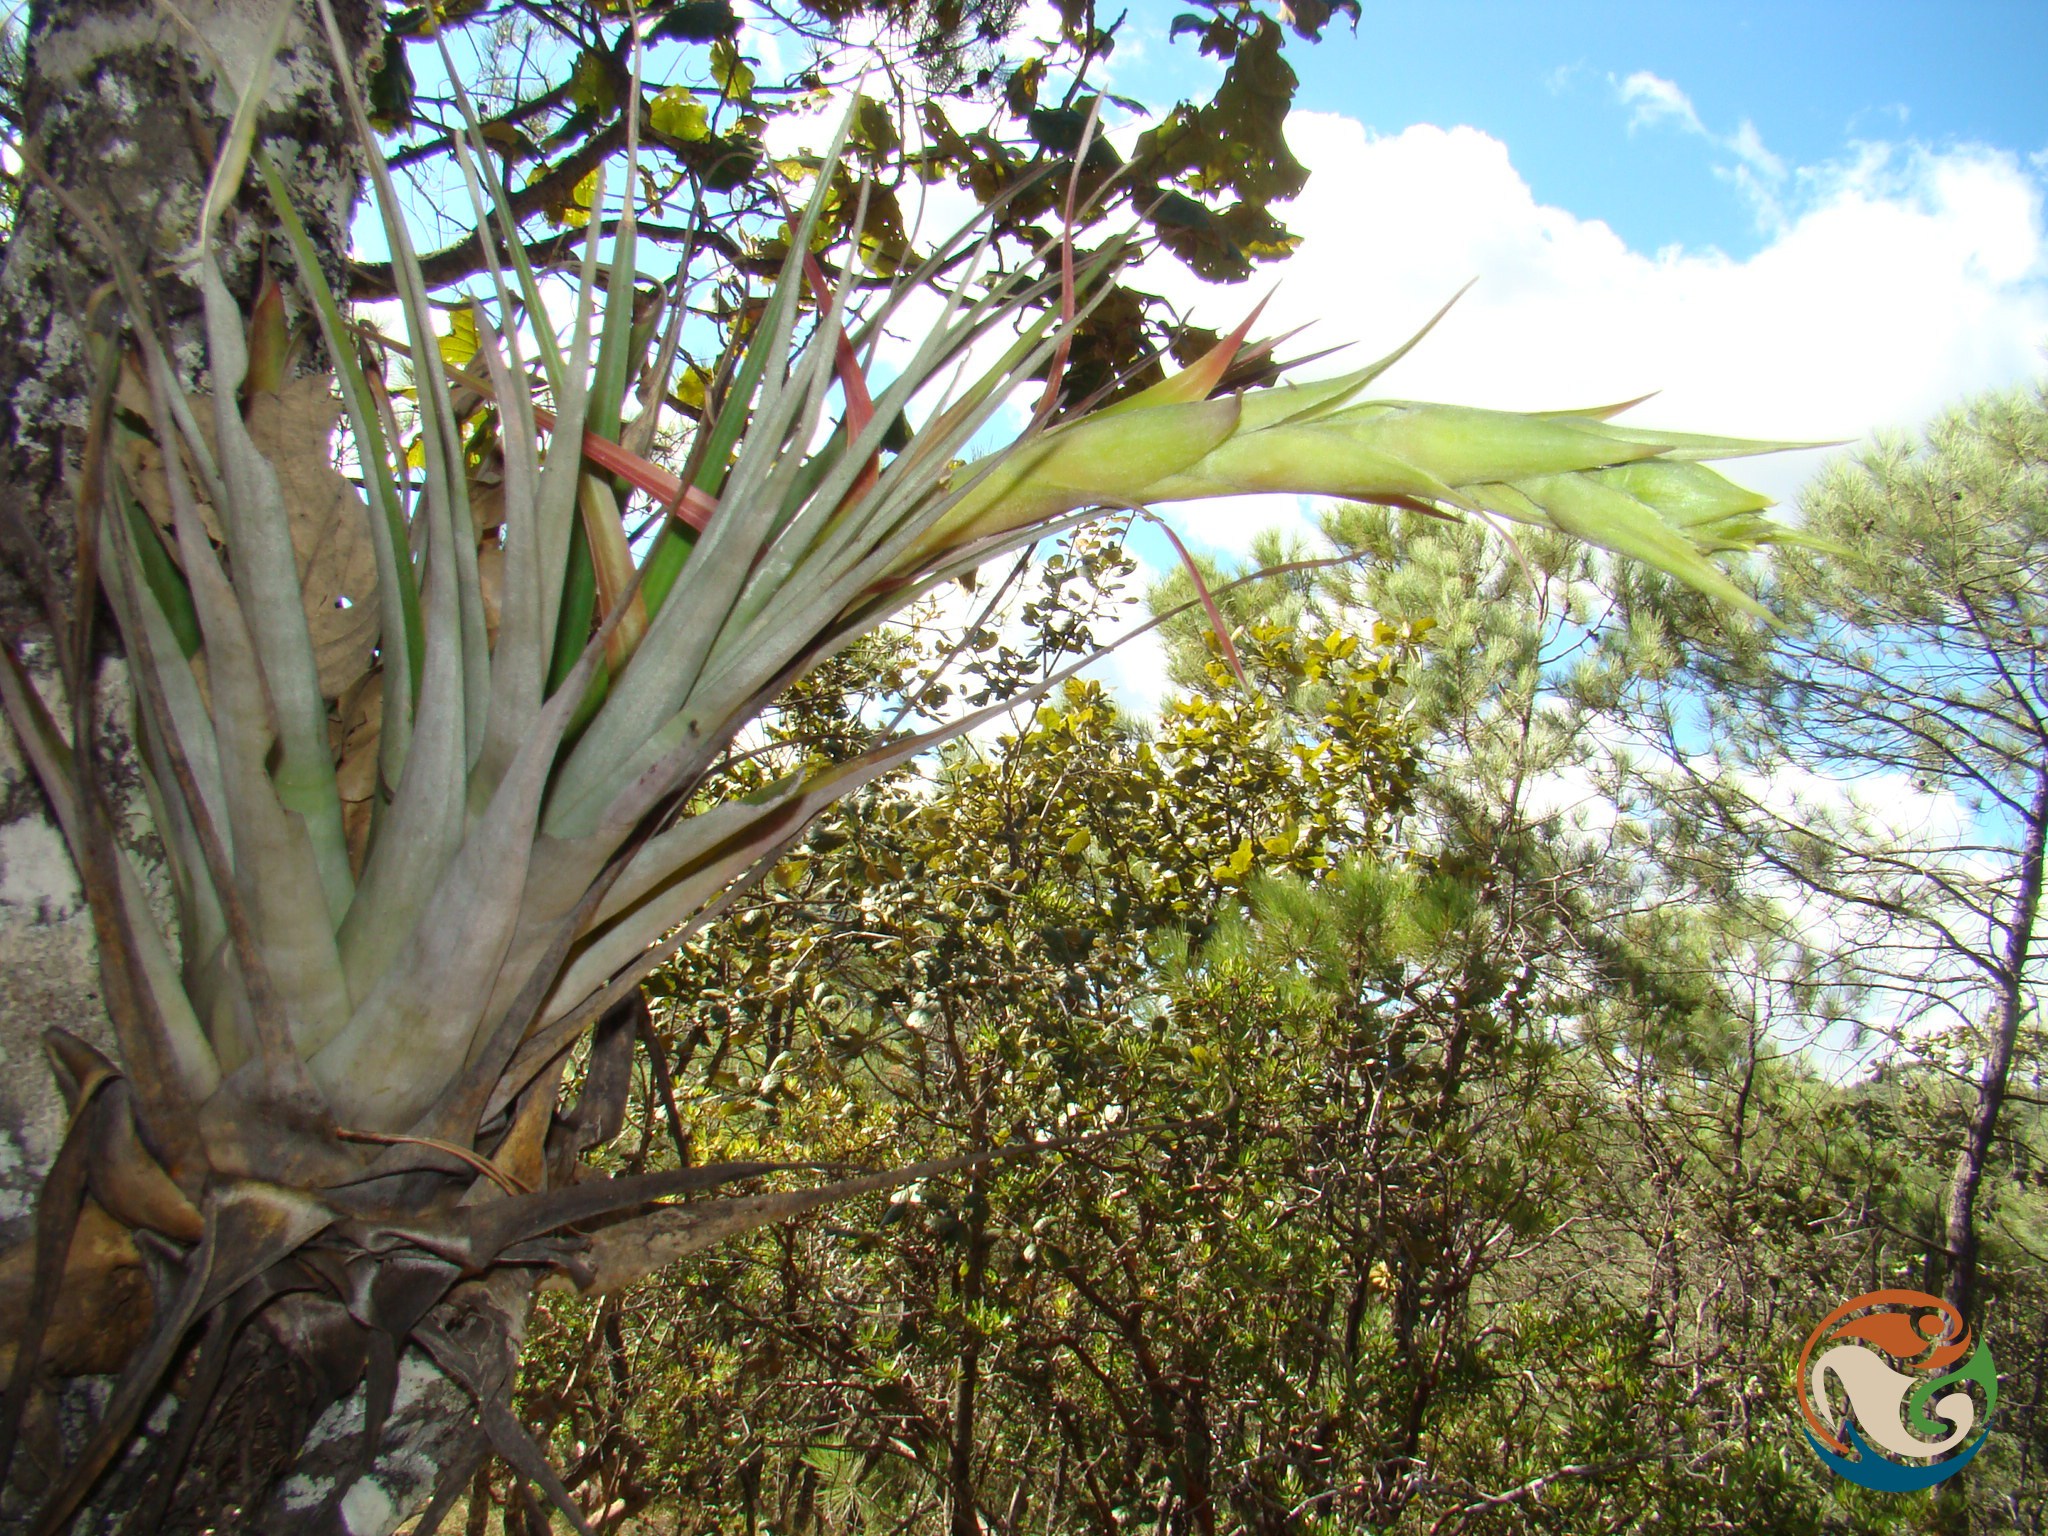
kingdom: Plantae
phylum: Tracheophyta
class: Liliopsida
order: Poales
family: Bromeliaceae
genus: Tillandsia
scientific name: Tillandsia prodigiosa
